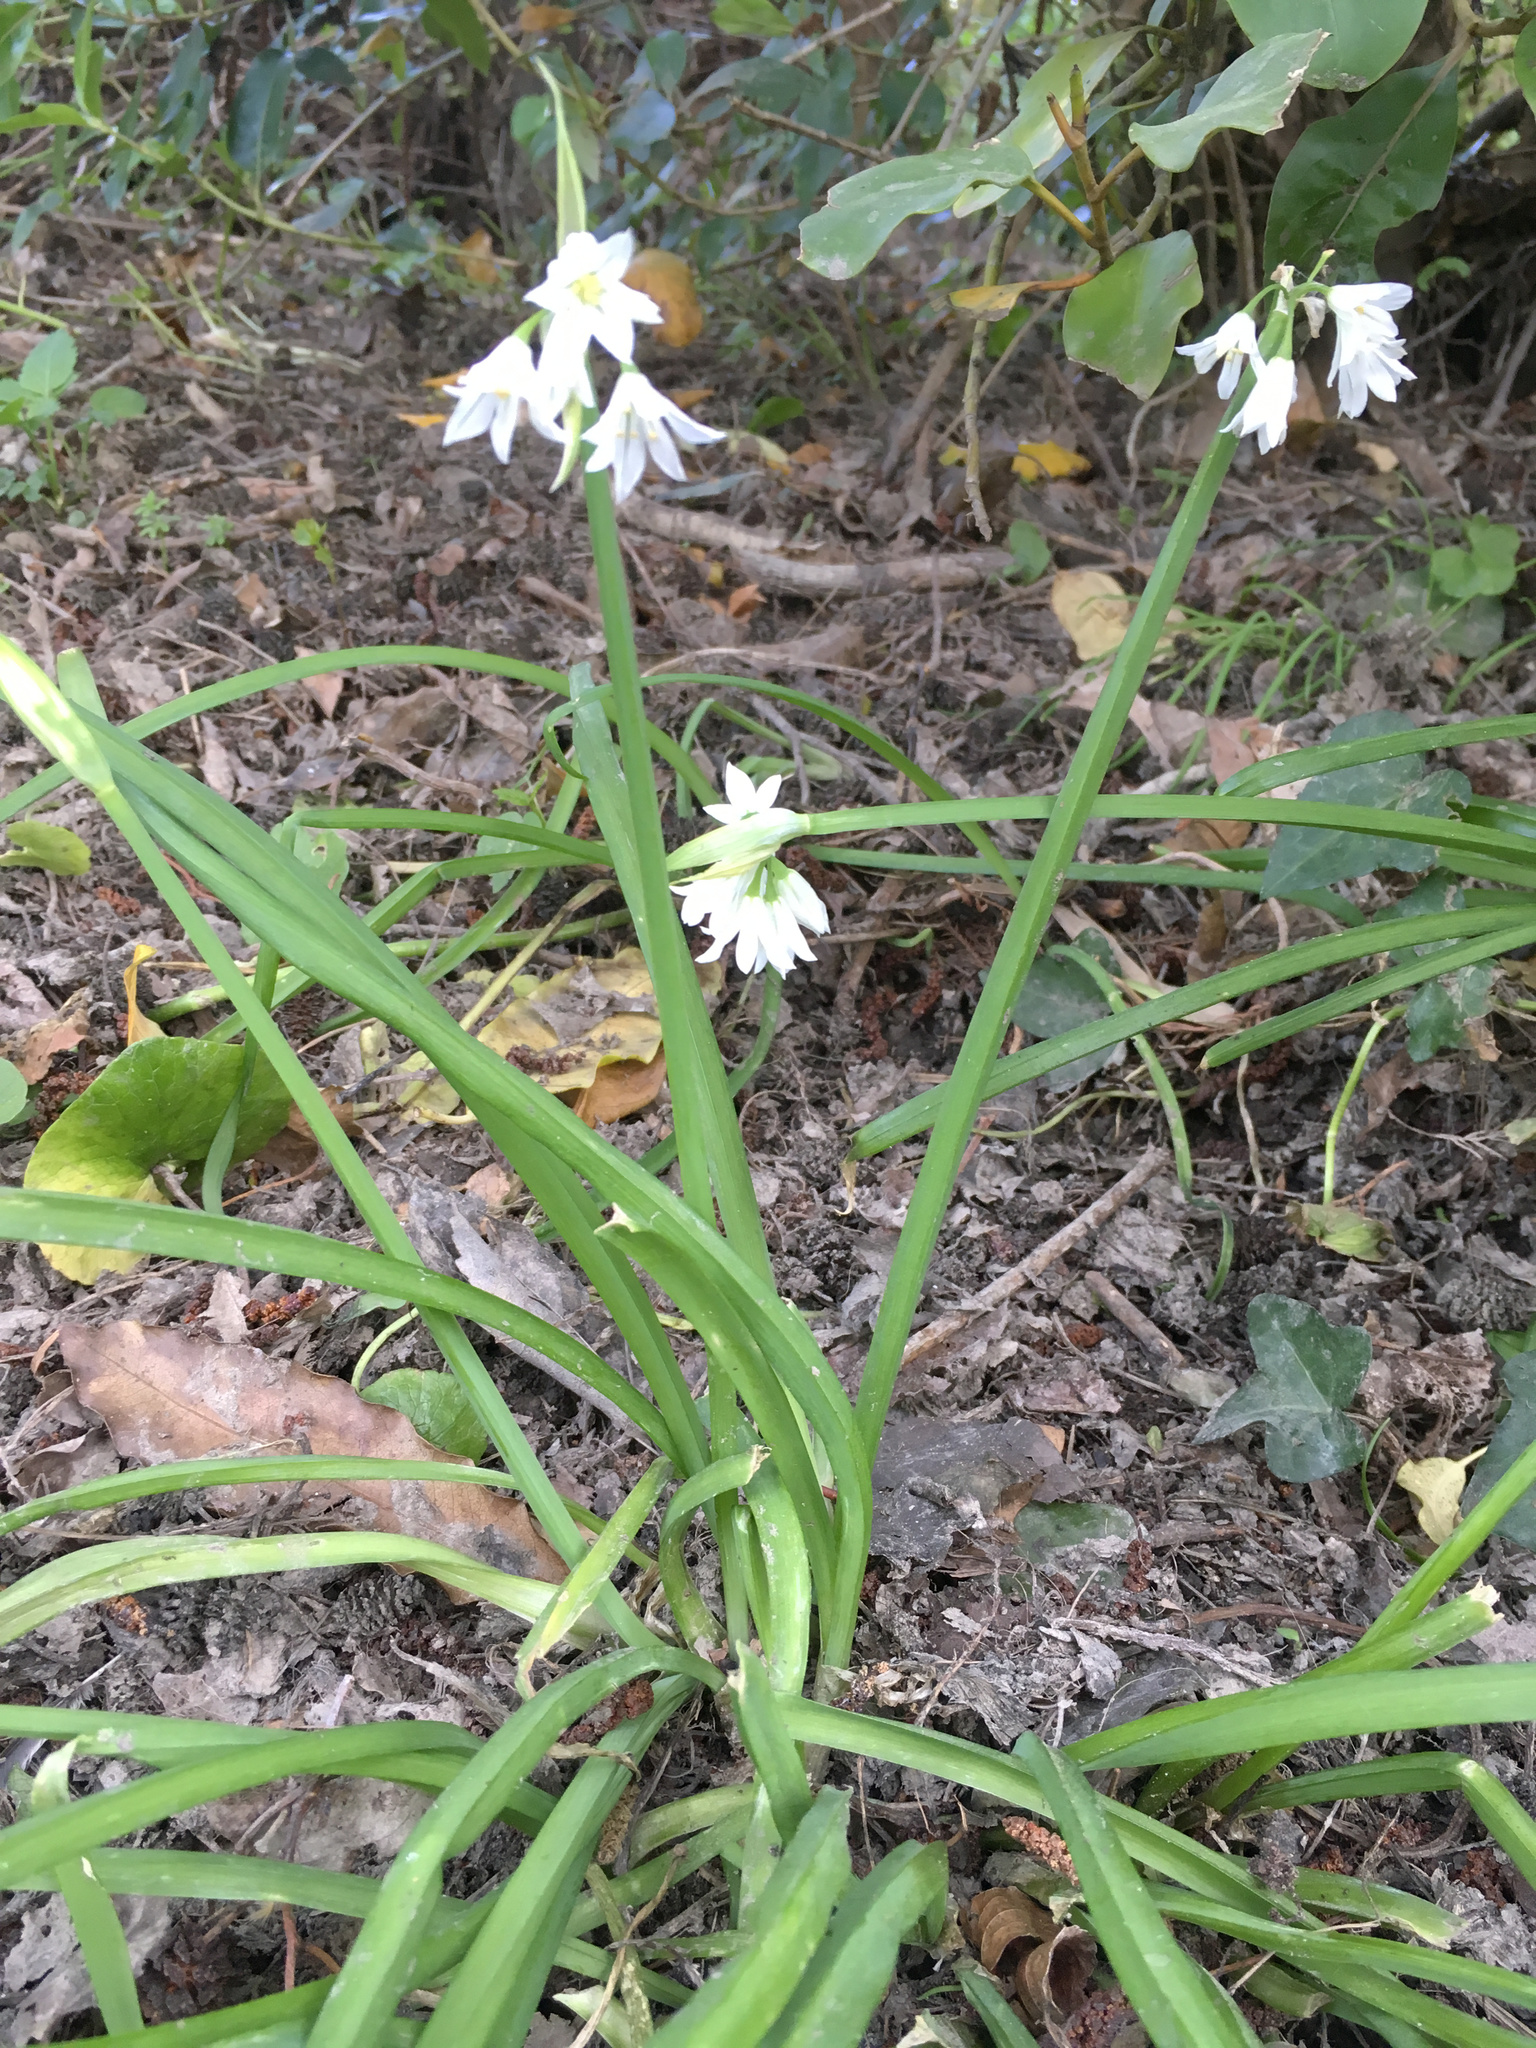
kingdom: Plantae
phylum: Tracheophyta
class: Liliopsida
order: Asparagales
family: Amaryllidaceae
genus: Allium
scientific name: Allium triquetrum
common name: Three-cornered garlic
